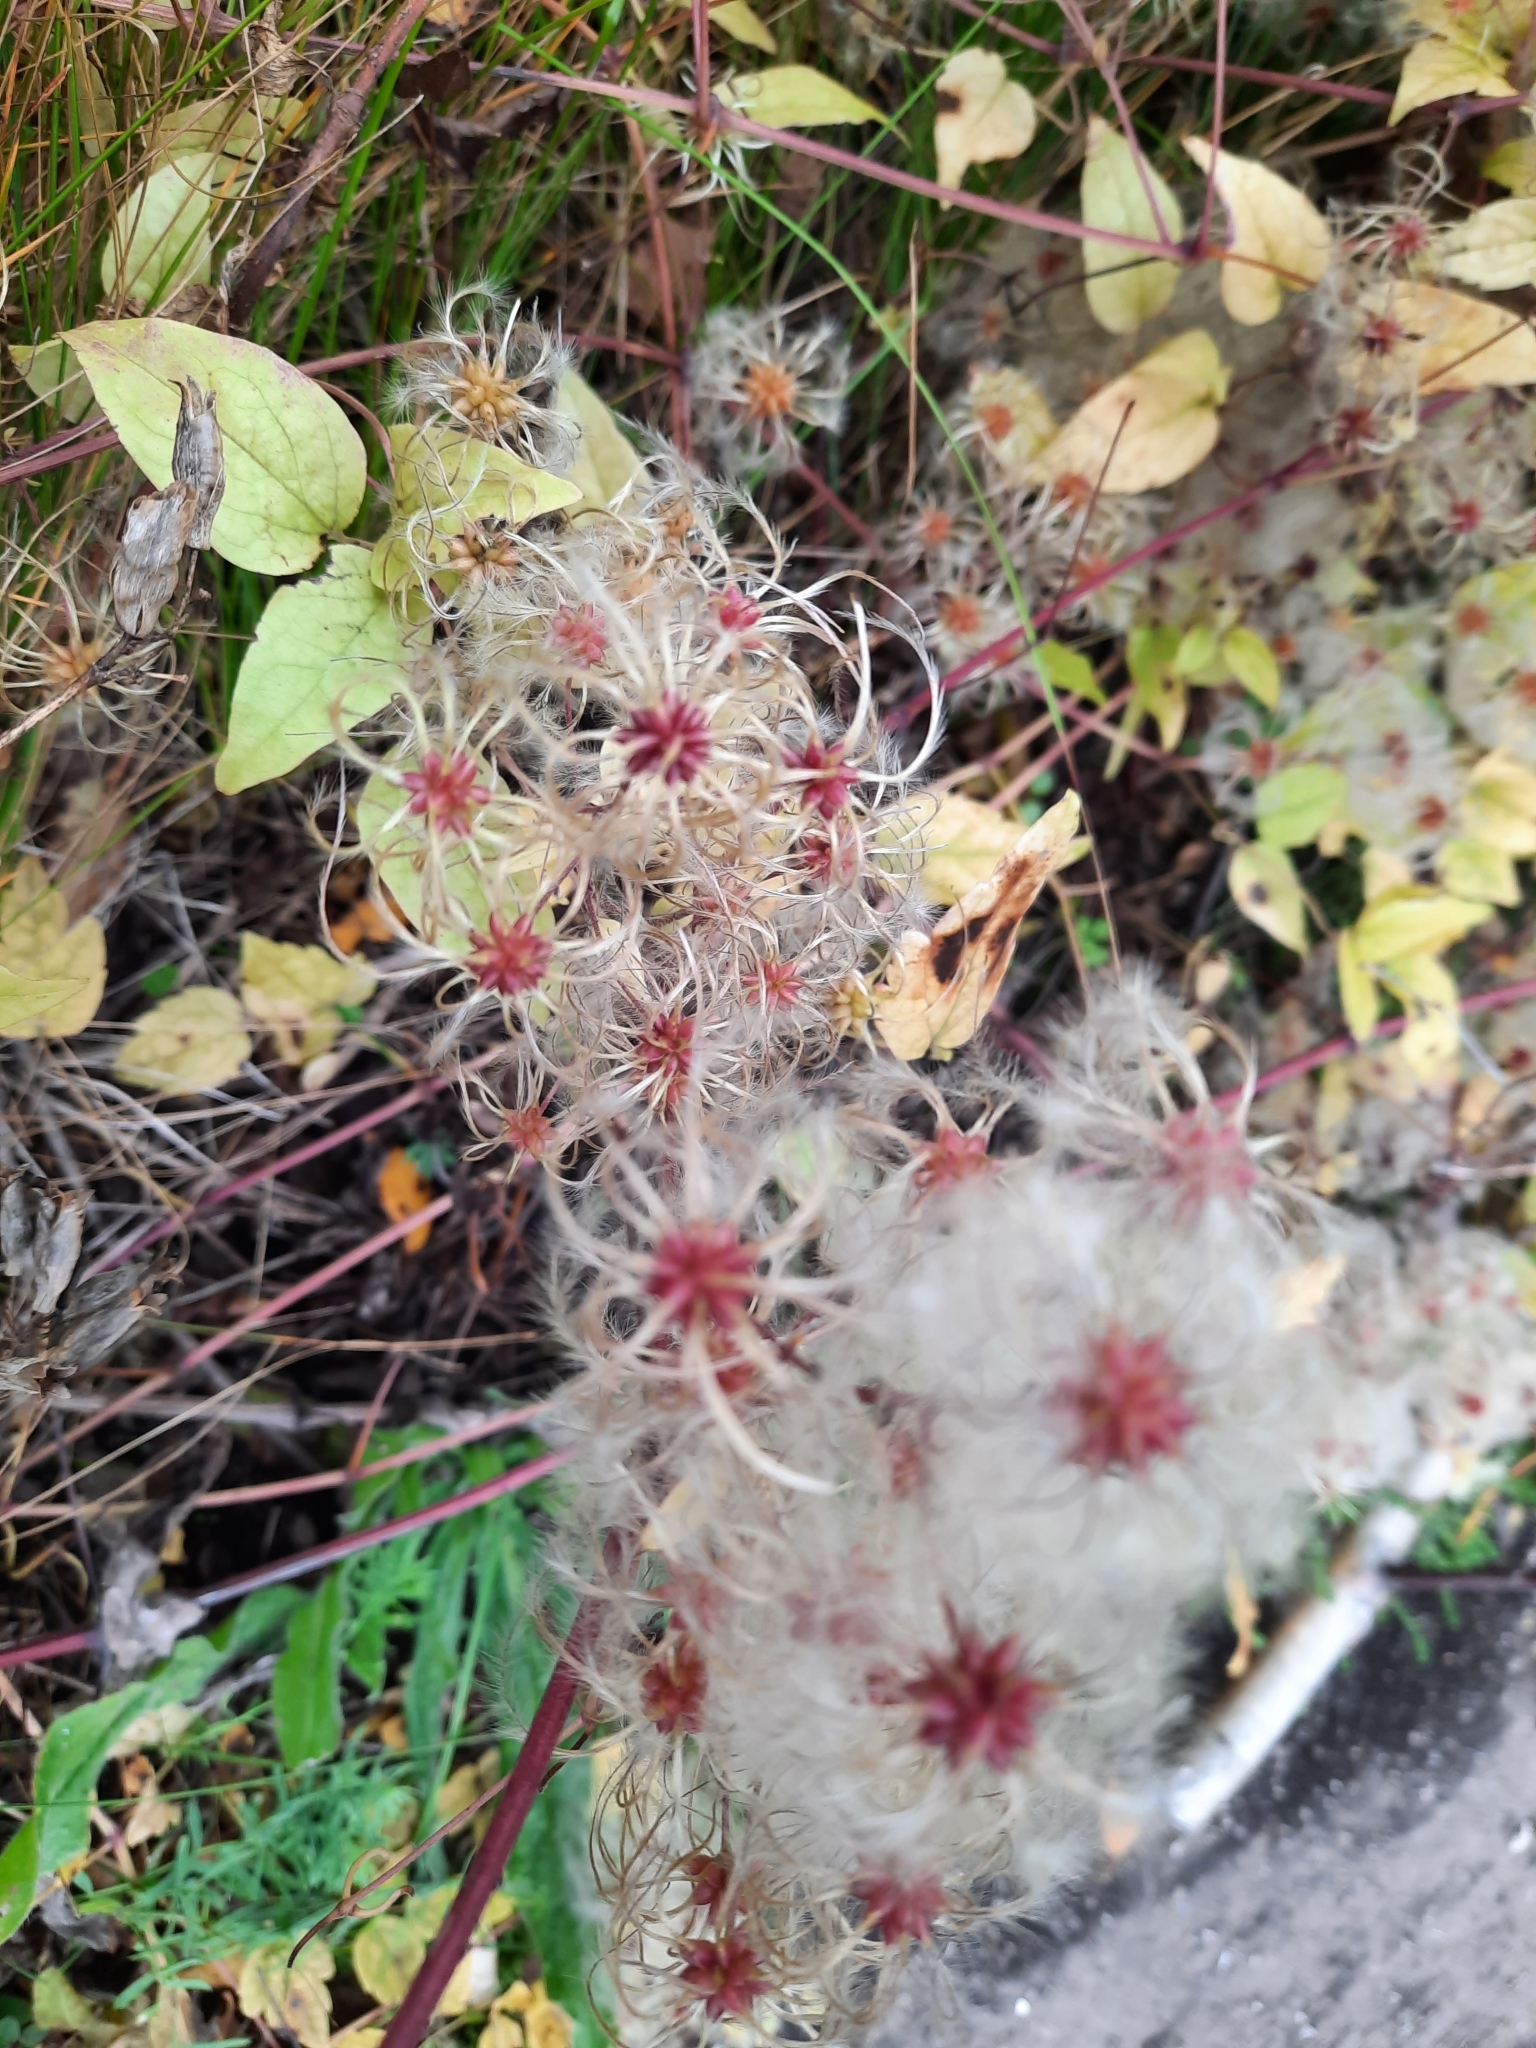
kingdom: Plantae
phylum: Tracheophyta
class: Magnoliopsida
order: Ranunculales
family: Ranunculaceae
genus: Clematis
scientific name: Clematis vitalba
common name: Evergreen clematis
